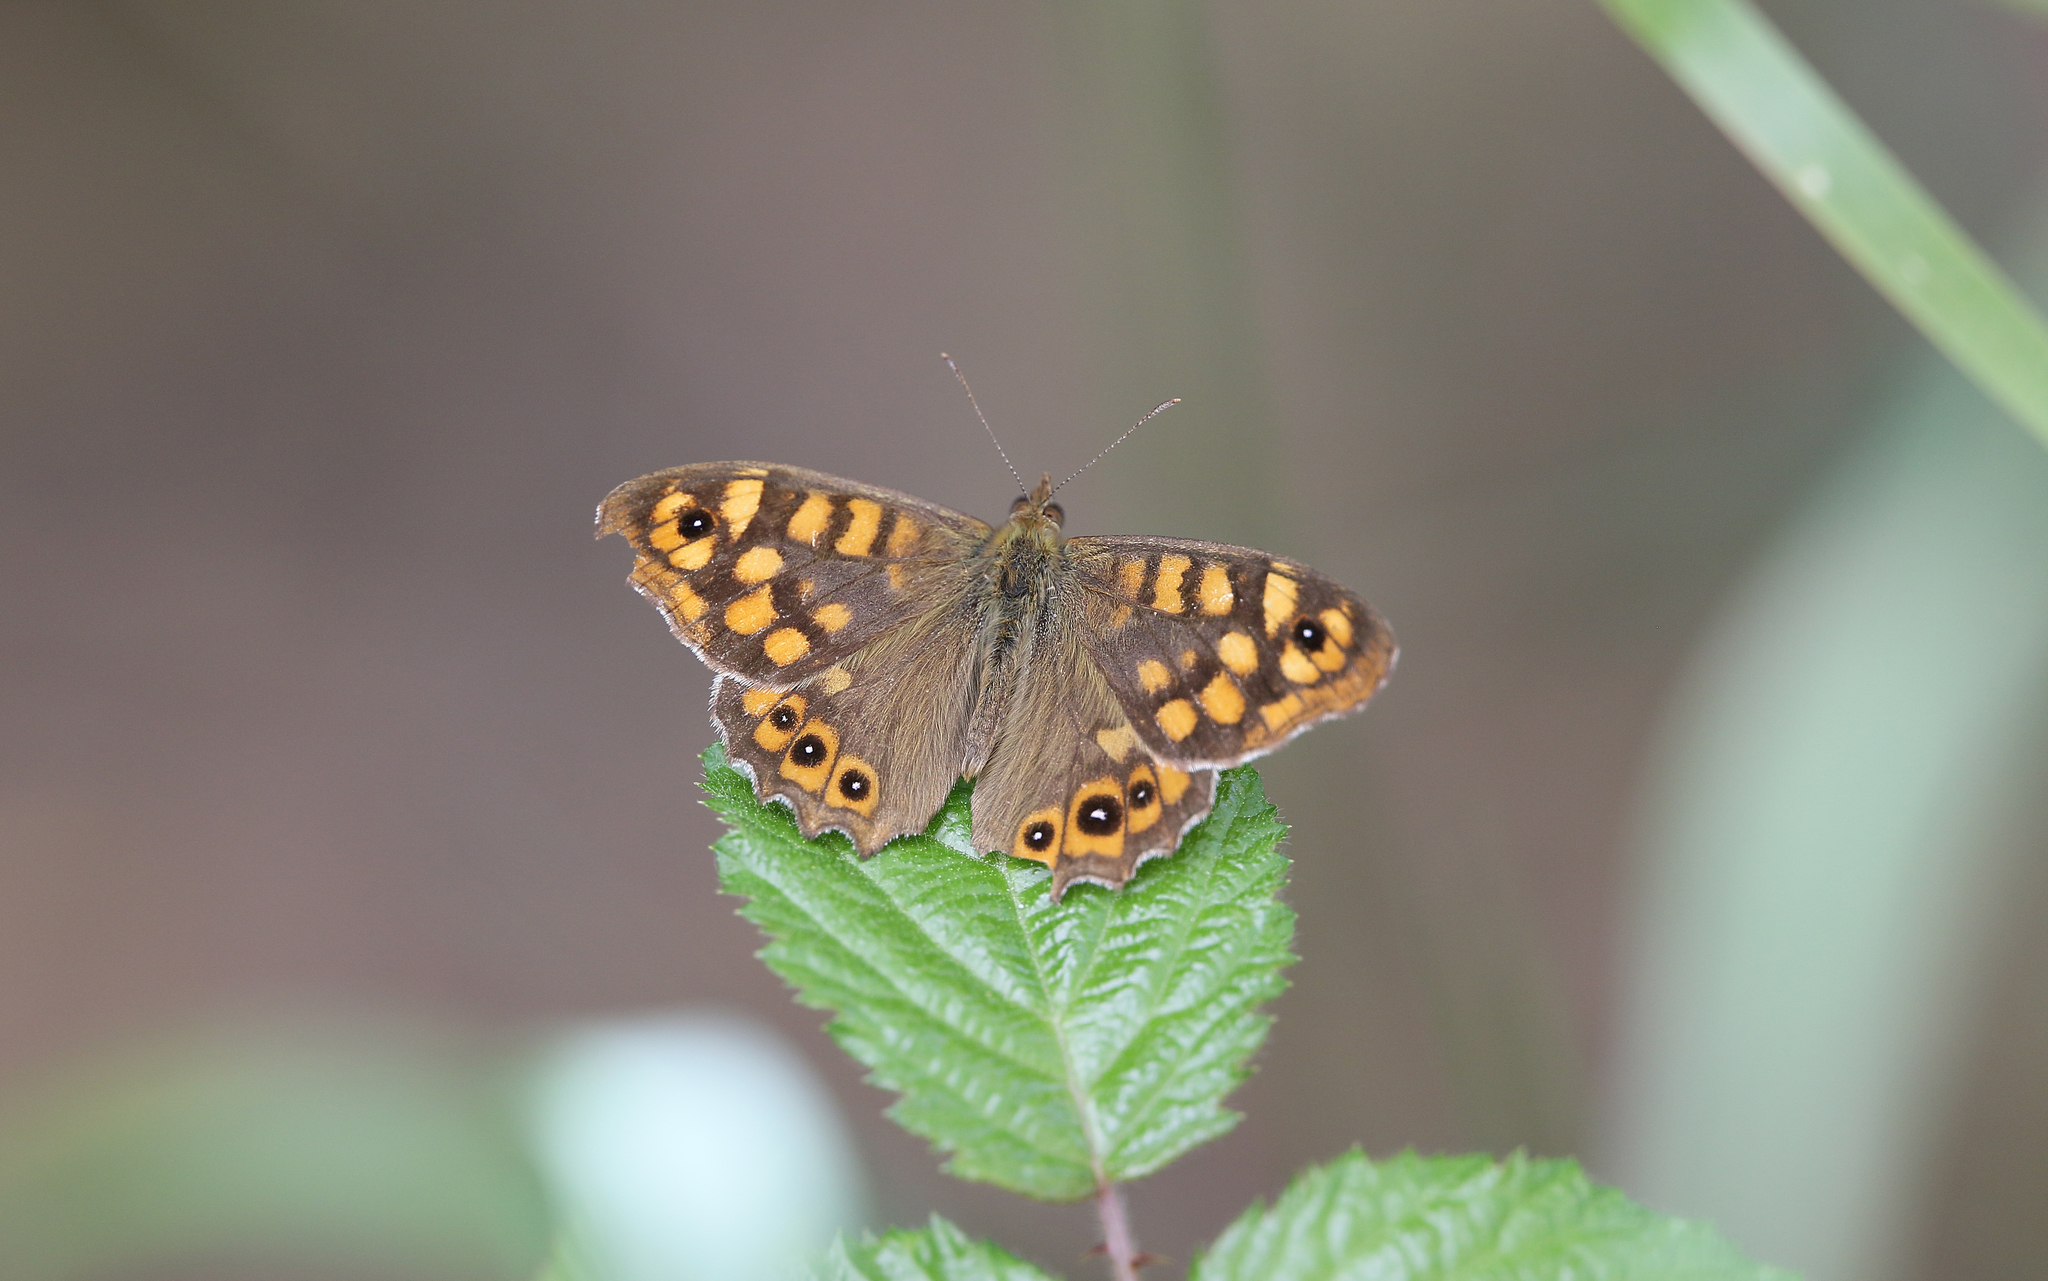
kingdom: Animalia
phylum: Arthropoda
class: Insecta
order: Lepidoptera
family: Nymphalidae
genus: Pararge
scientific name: Pararge aegeria
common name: Speckled wood
